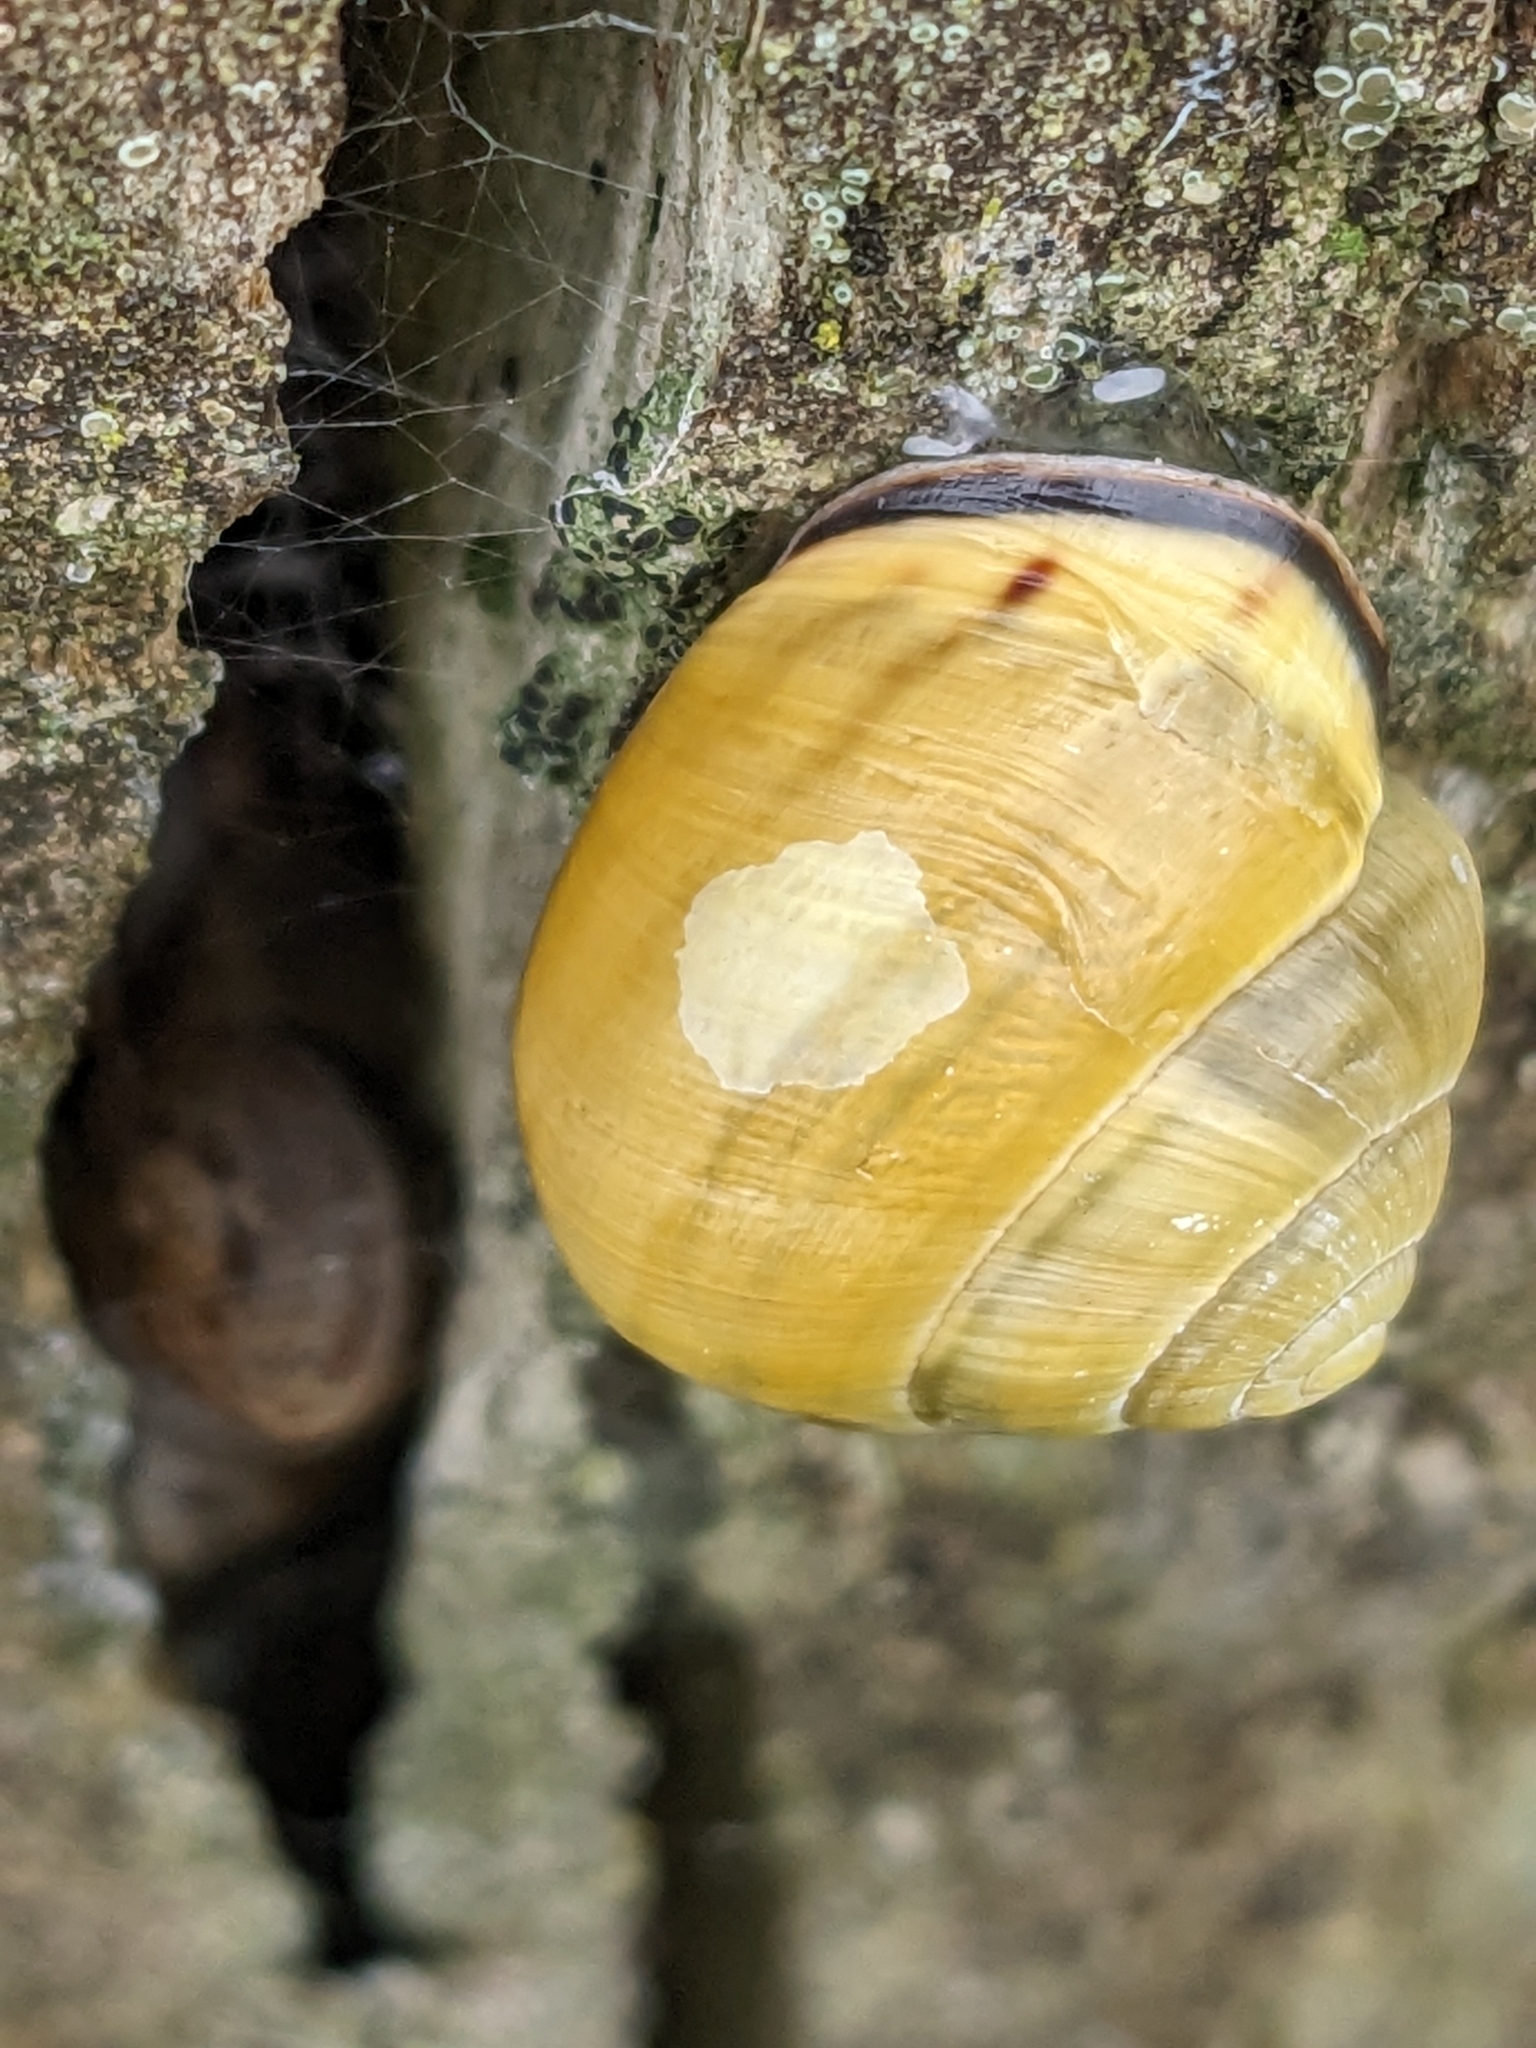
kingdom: Animalia
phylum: Mollusca
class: Gastropoda
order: Stylommatophora
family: Helicidae
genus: Cepaea
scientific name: Cepaea nemoralis
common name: Grovesnail
